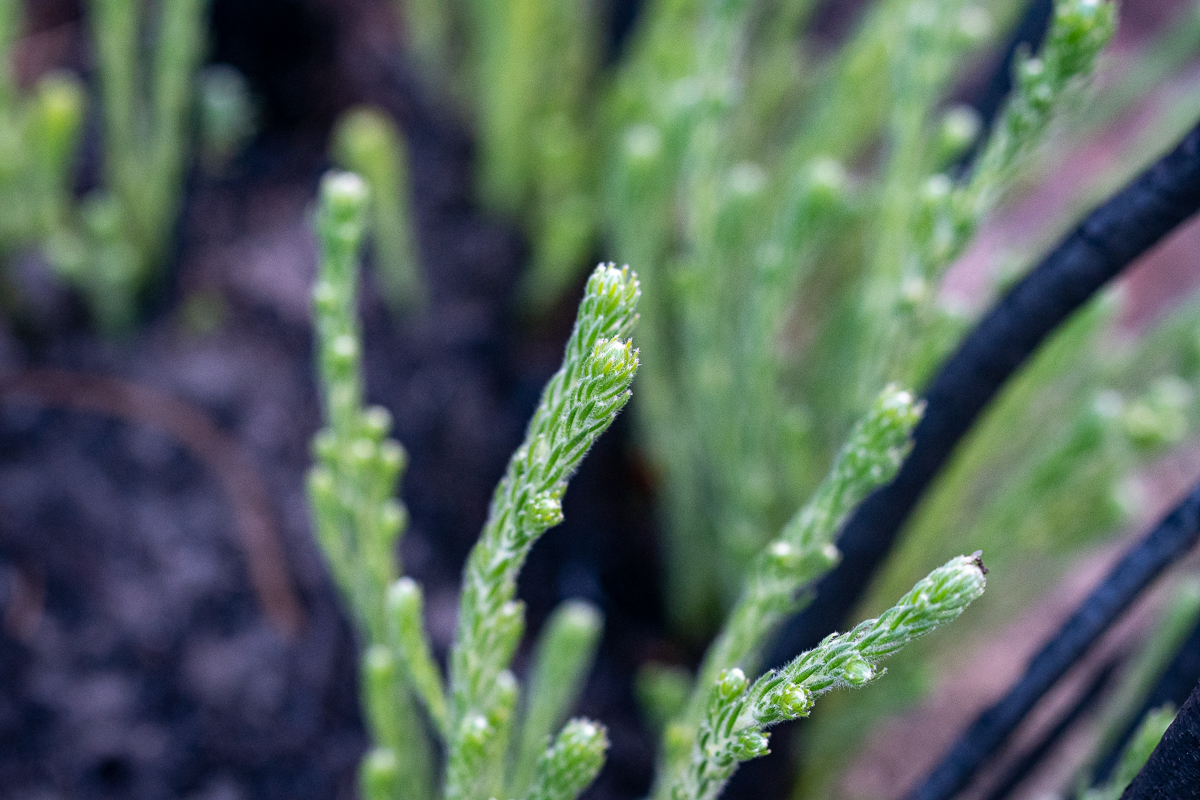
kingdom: Plantae
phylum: Tracheophyta
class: Magnoliopsida
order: Bruniales
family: Bruniaceae
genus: Brunia
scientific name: Brunia noduliflora
